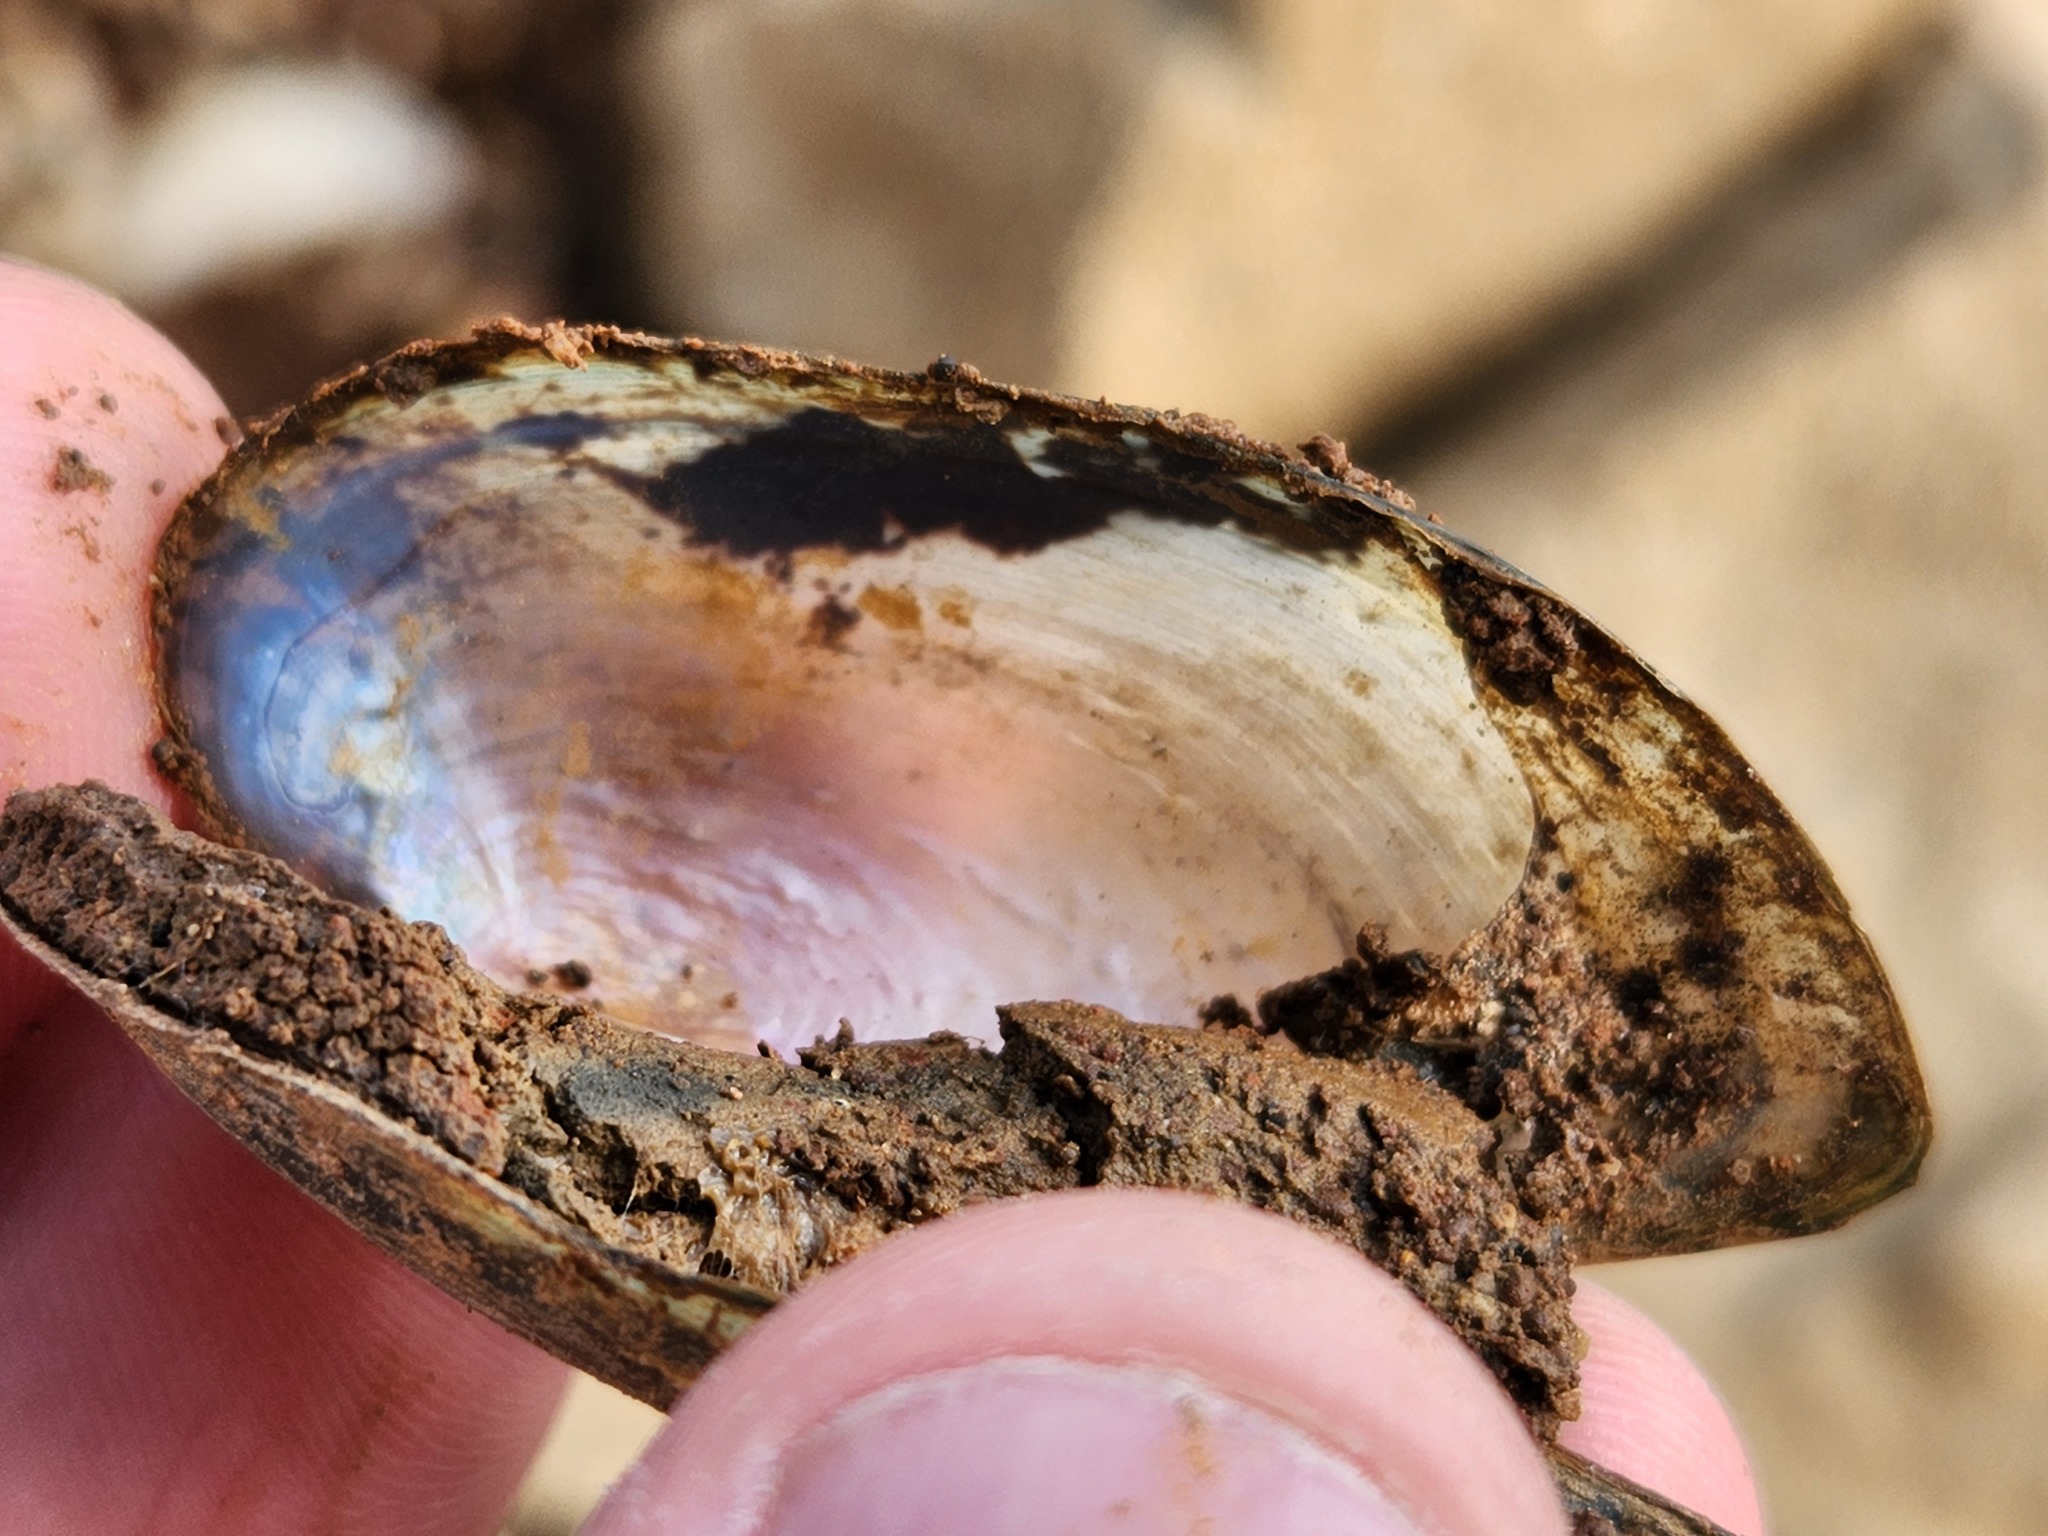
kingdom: Animalia
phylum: Mollusca
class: Bivalvia
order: Unionida
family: Unionidae
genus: Utterbackia
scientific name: Utterbackia imbecillis
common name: Paper pondshell
